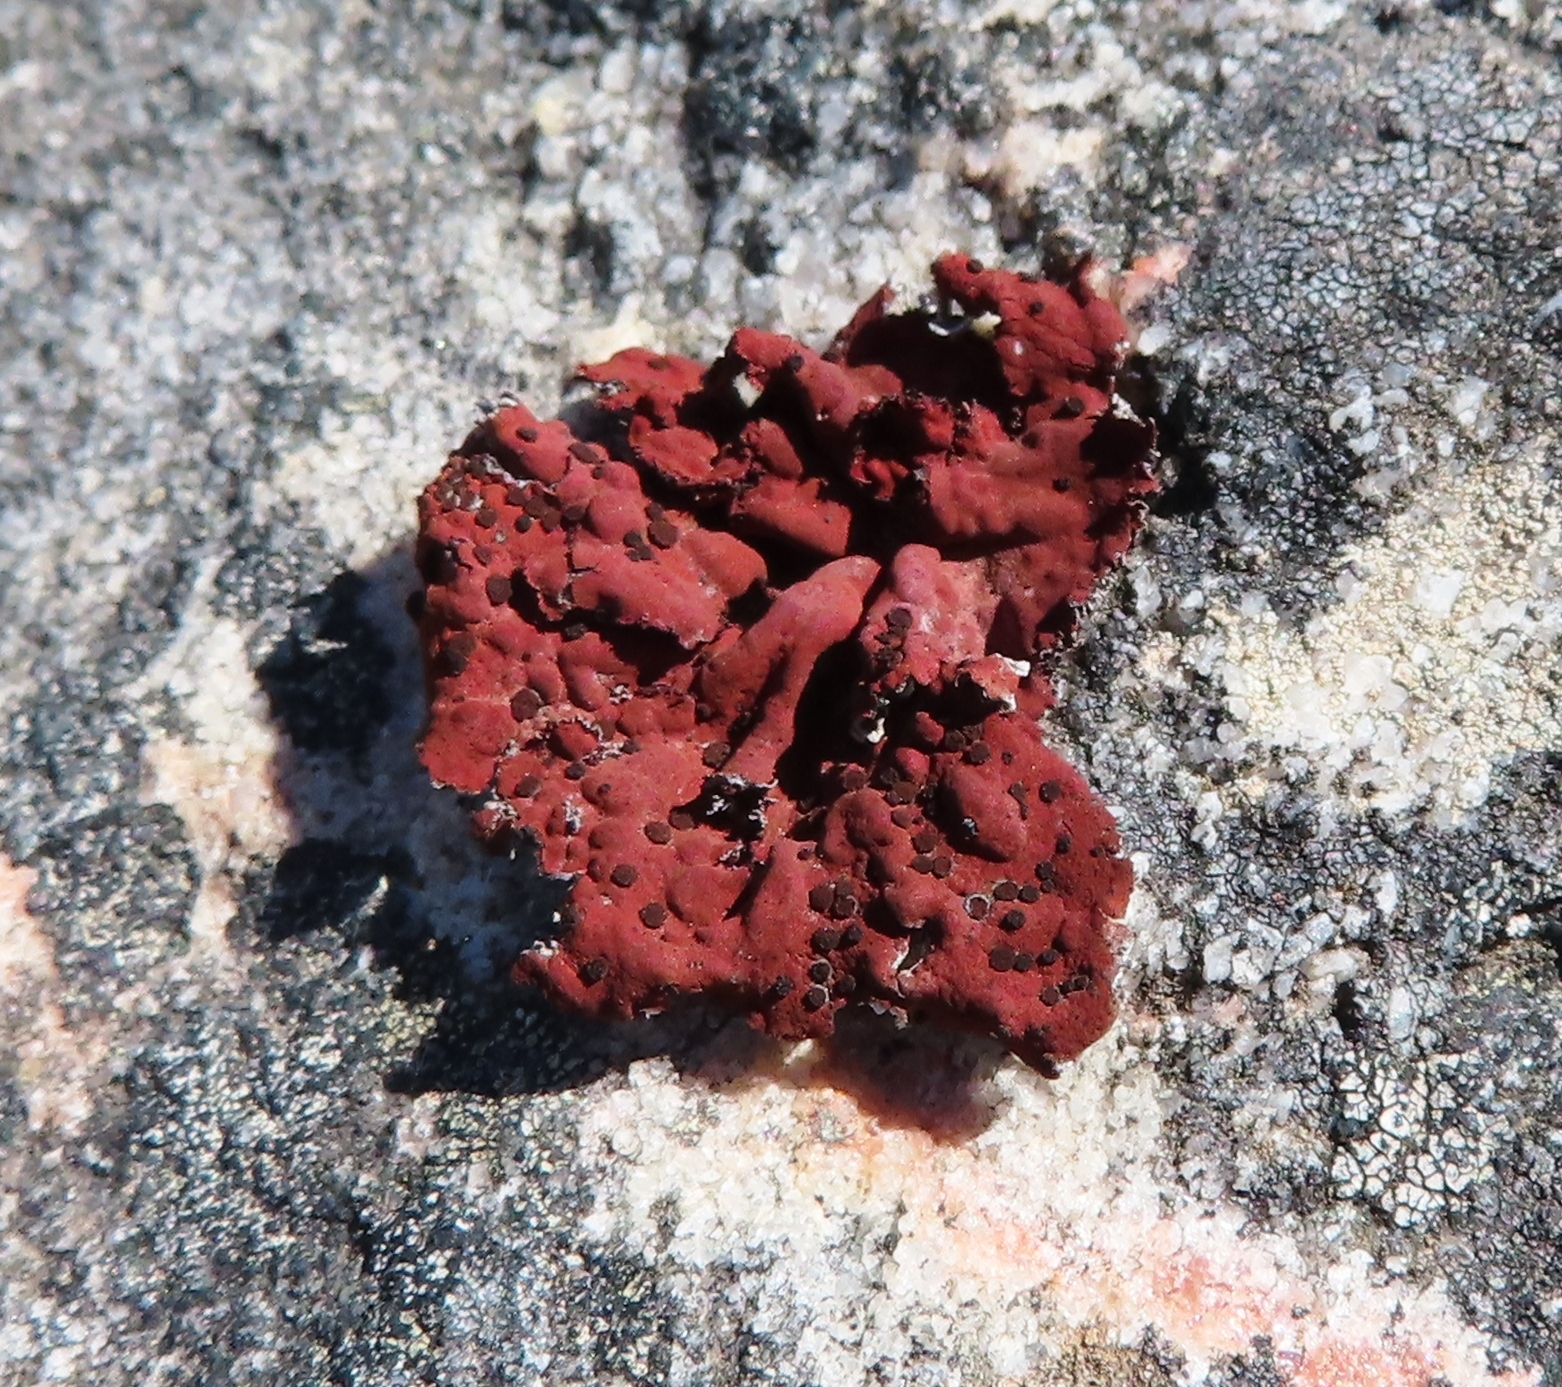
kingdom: Fungi
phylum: Ascomycota
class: Lecanoromycetes
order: Umbilicariales
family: Umbilicariaceae
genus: Lasallia
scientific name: Lasallia rubiginosa
